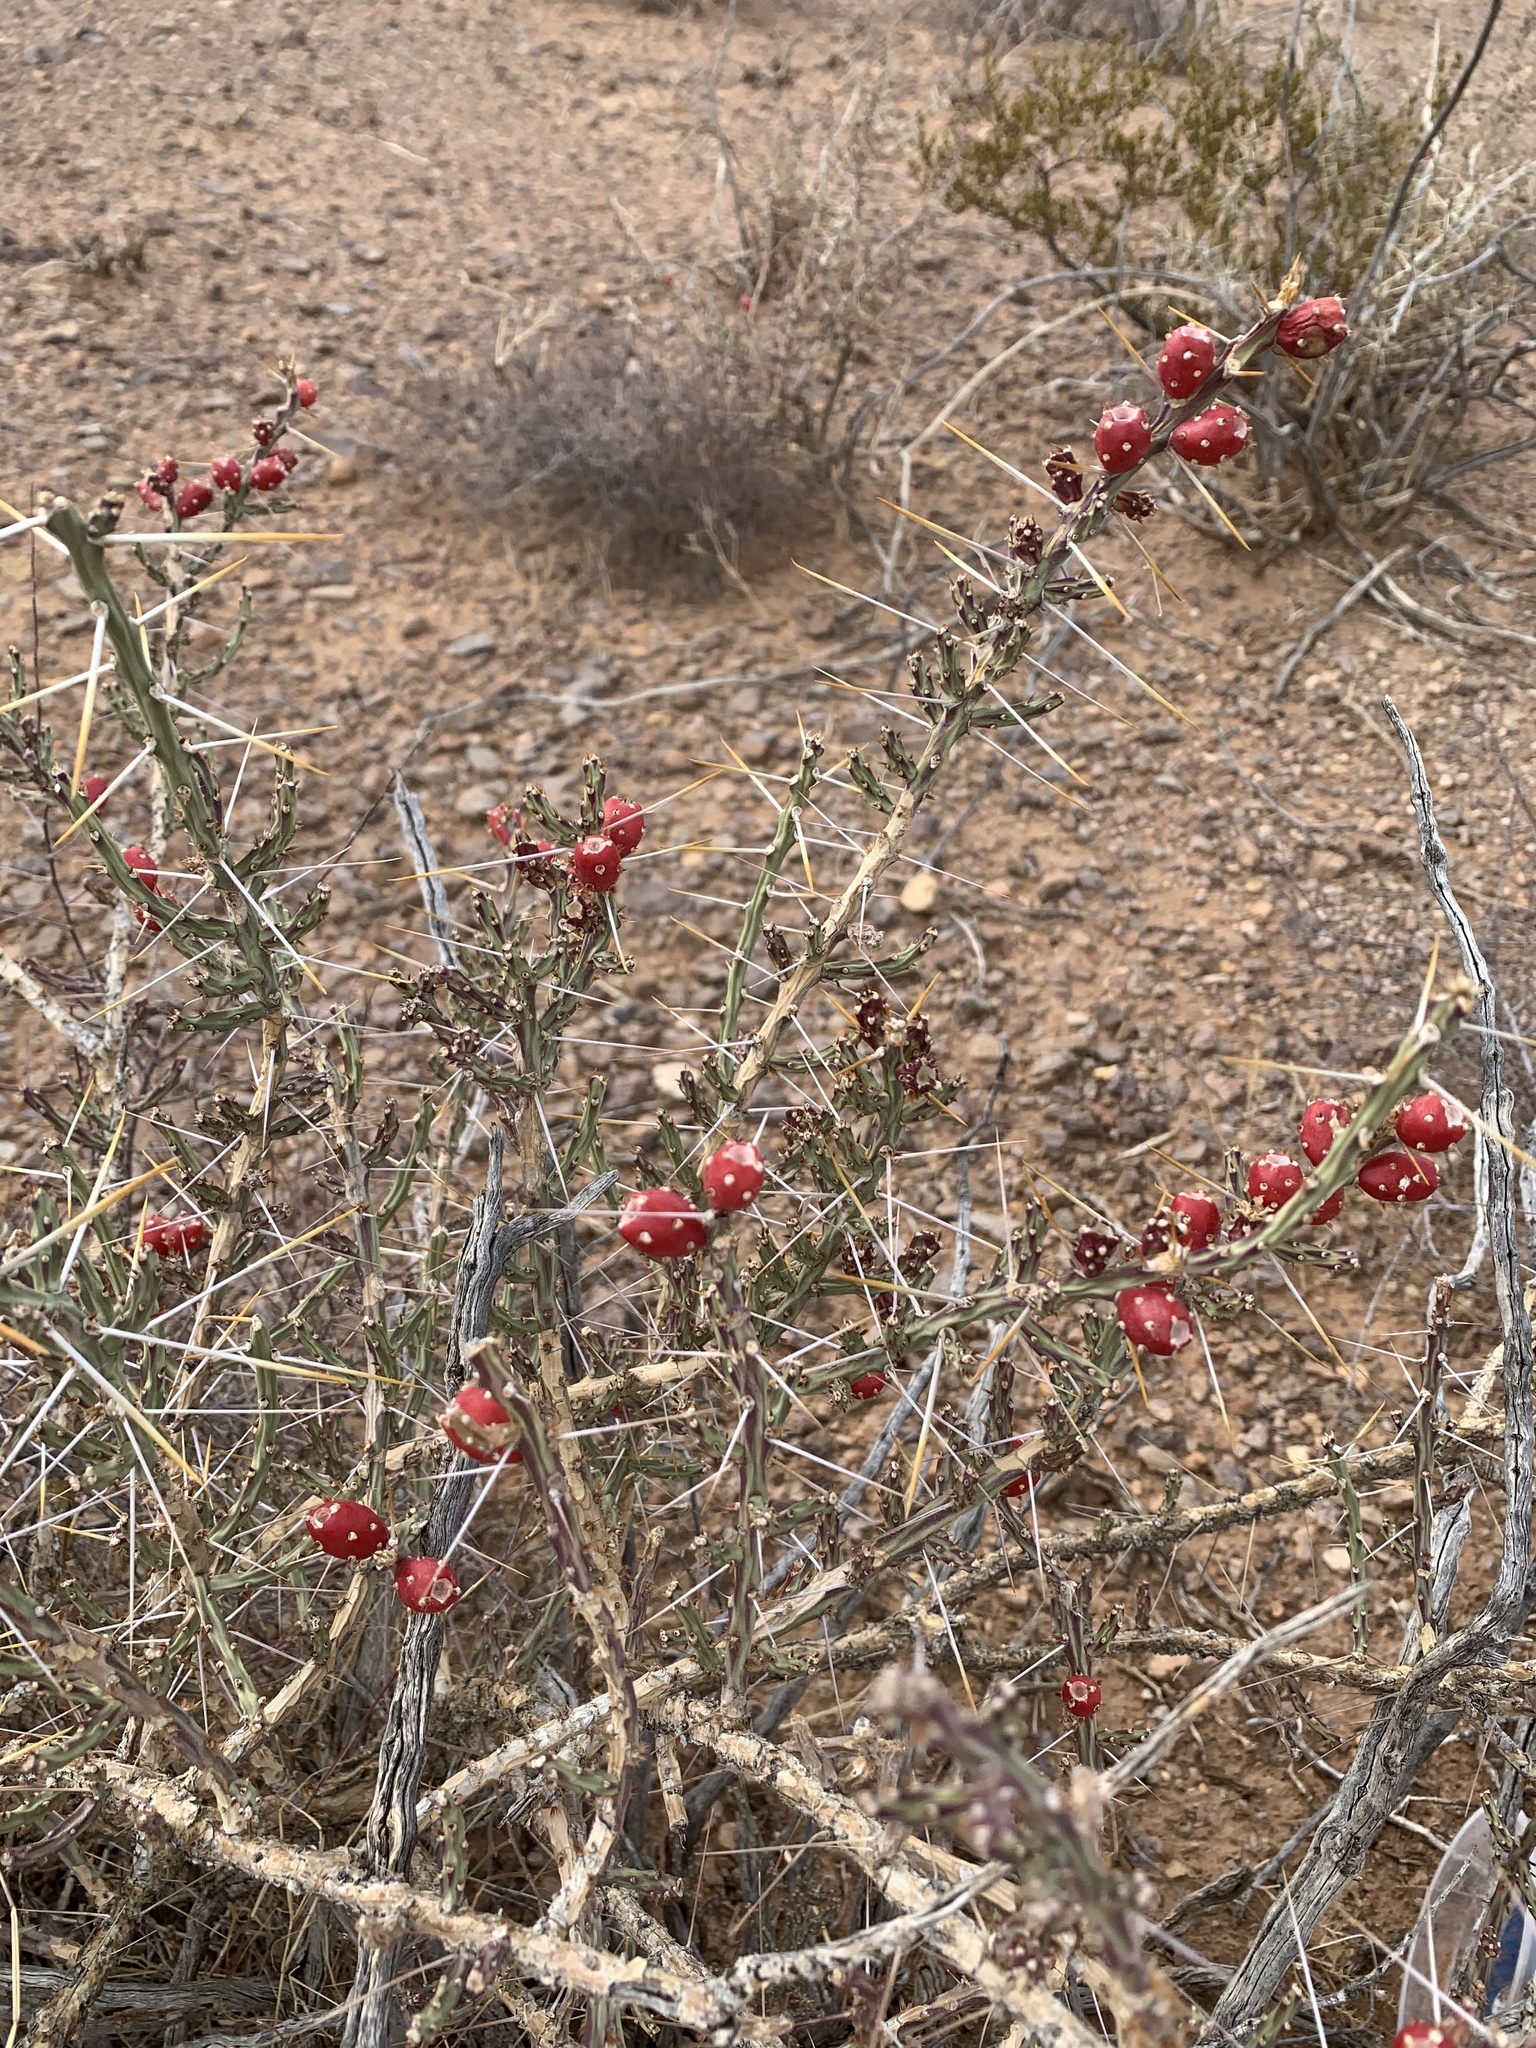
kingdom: Plantae
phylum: Tracheophyta
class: Magnoliopsida
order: Caryophyllales
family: Cactaceae
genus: Cylindropuntia
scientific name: Cylindropuntia leptocaulis
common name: Christmas cactus
